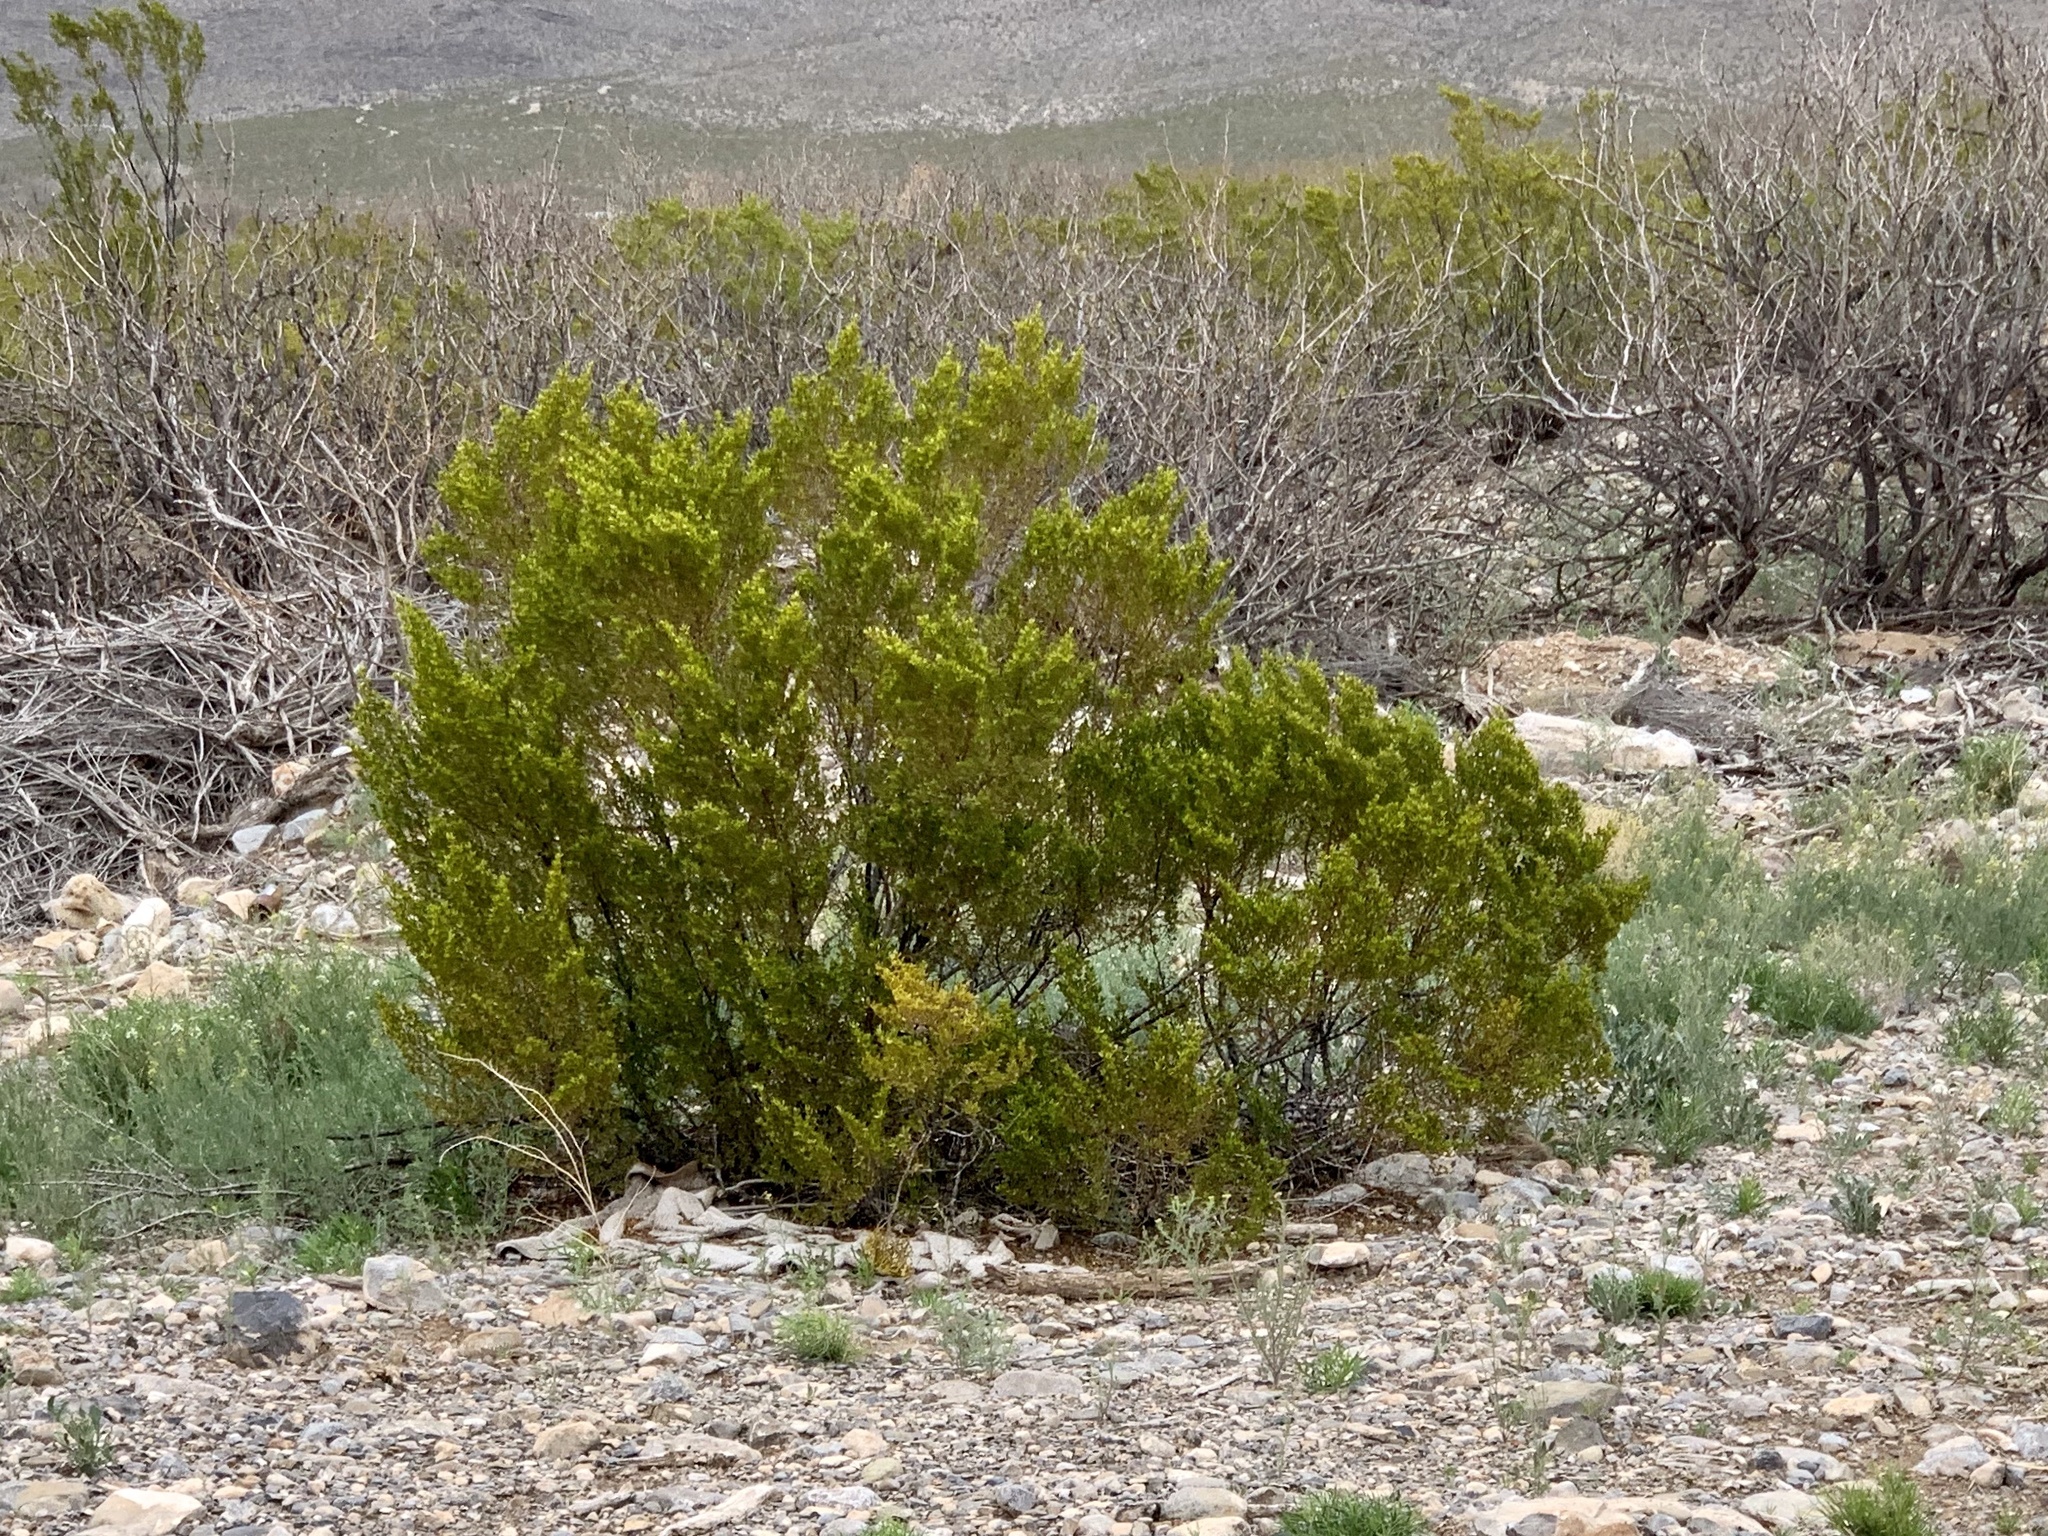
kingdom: Plantae
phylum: Tracheophyta
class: Magnoliopsida
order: Zygophyllales
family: Zygophyllaceae
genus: Larrea
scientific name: Larrea tridentata
